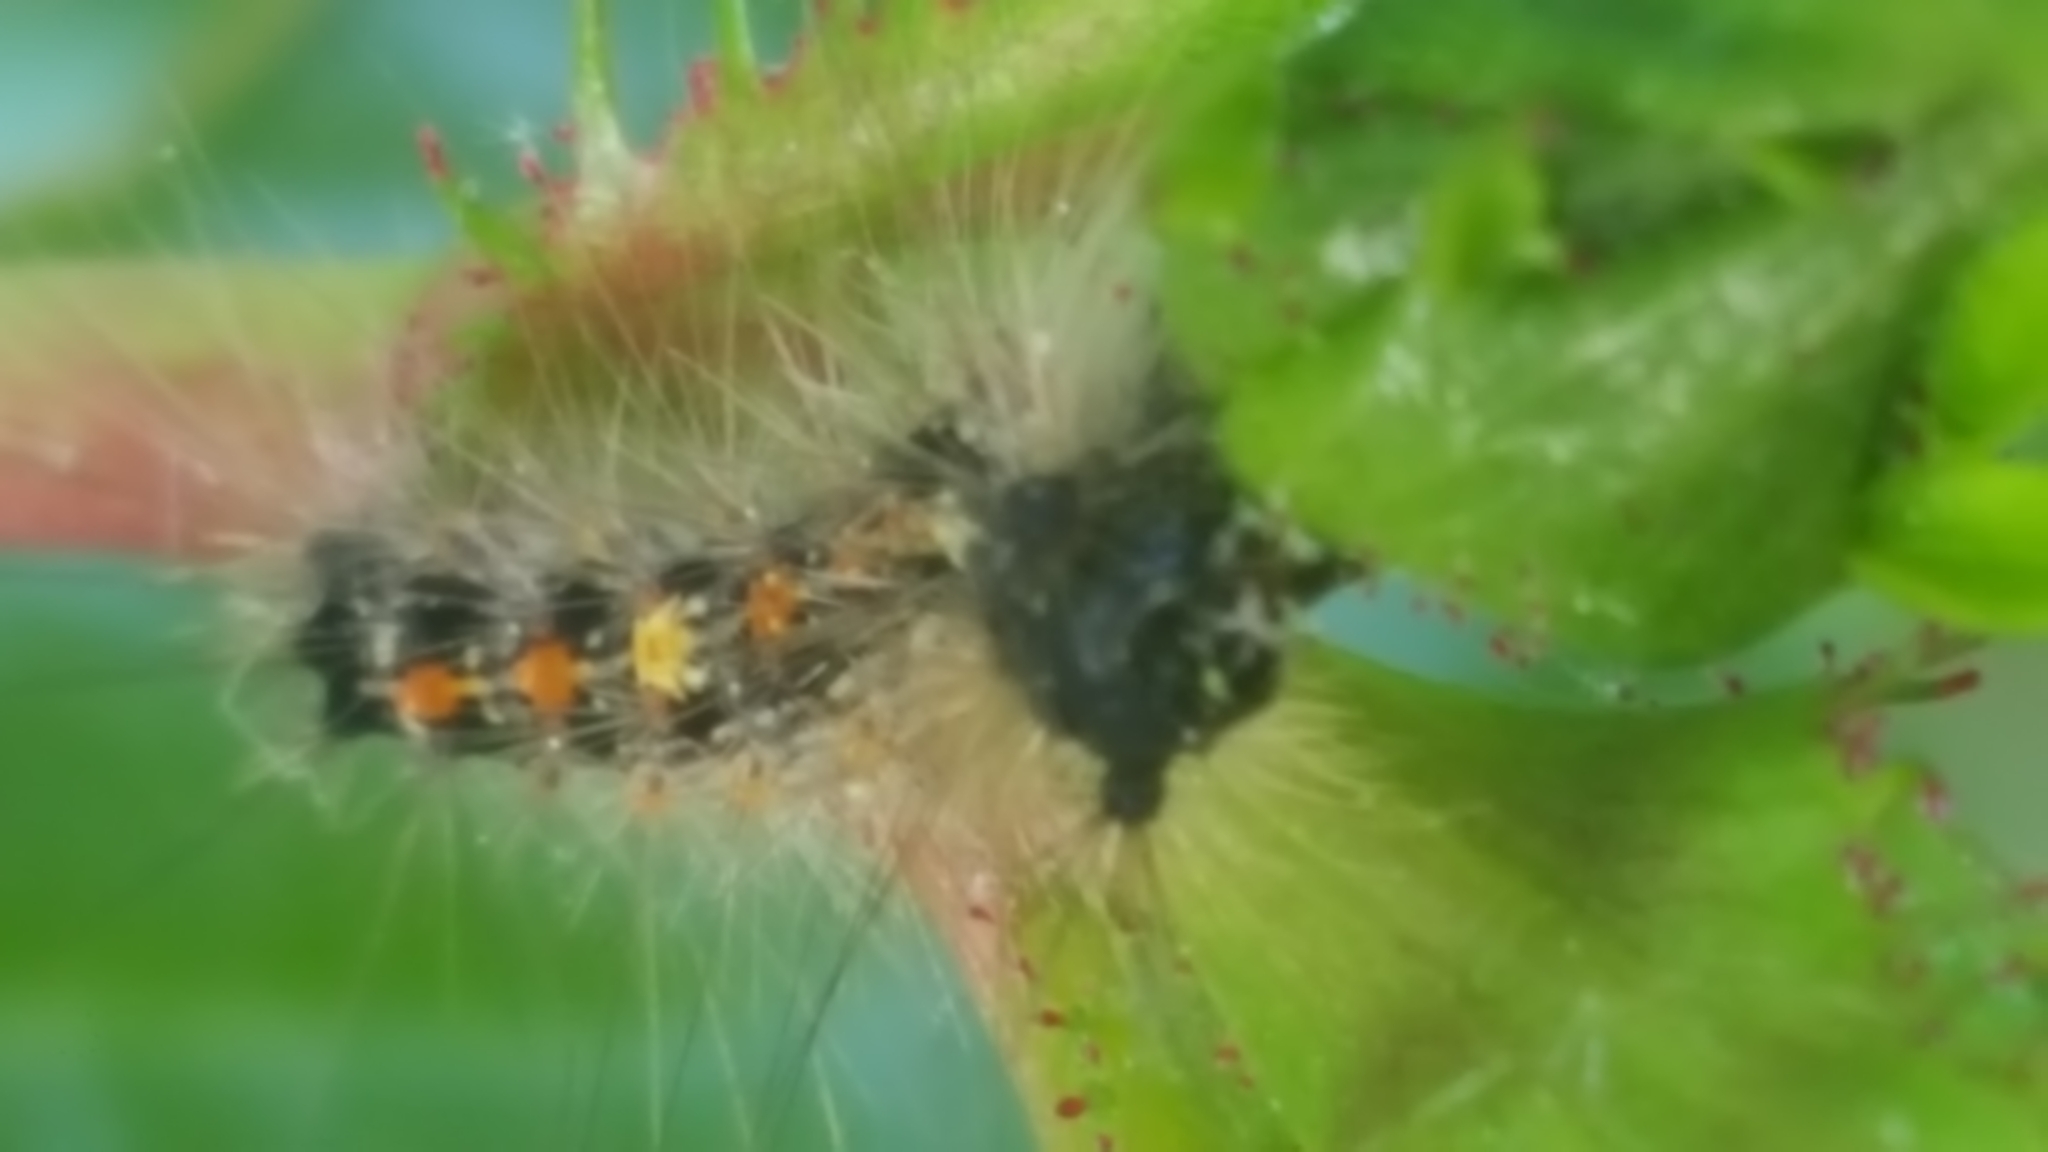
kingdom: Animalia
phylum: Arthropoda
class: Insecta
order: Lepidoptera
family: Erebidae
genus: Lymantria
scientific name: Lymantria dispar
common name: Gypsy moth
